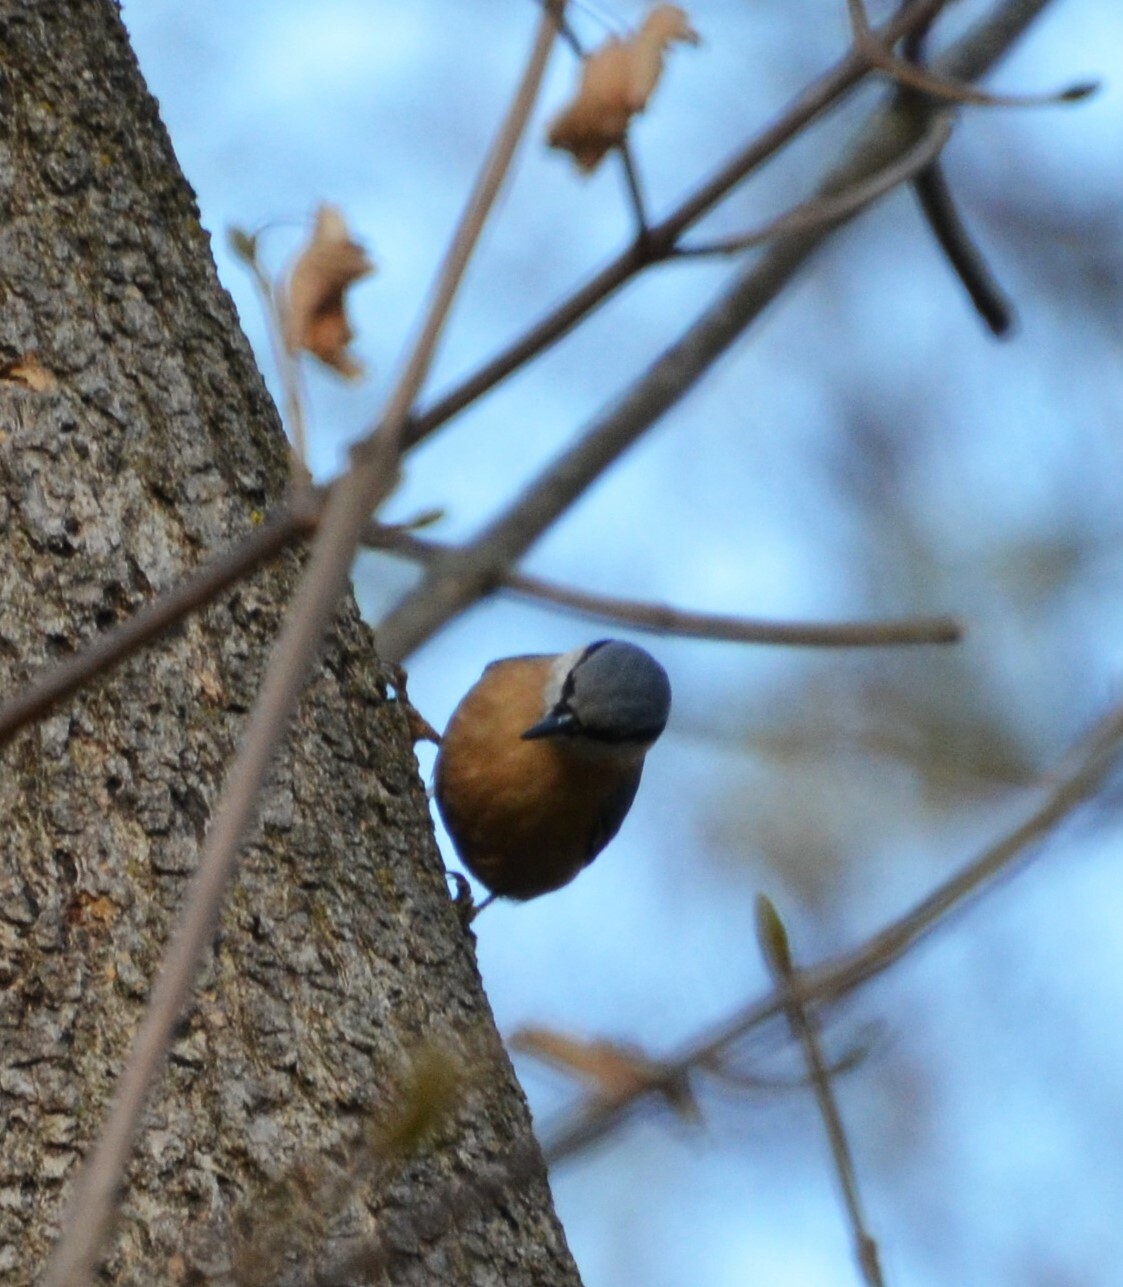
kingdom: Animalia
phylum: Chordata
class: Aves
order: Passeriformes
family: Sittidae
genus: Sitta
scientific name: Sitta europaea
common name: Eurasian nuthatch
